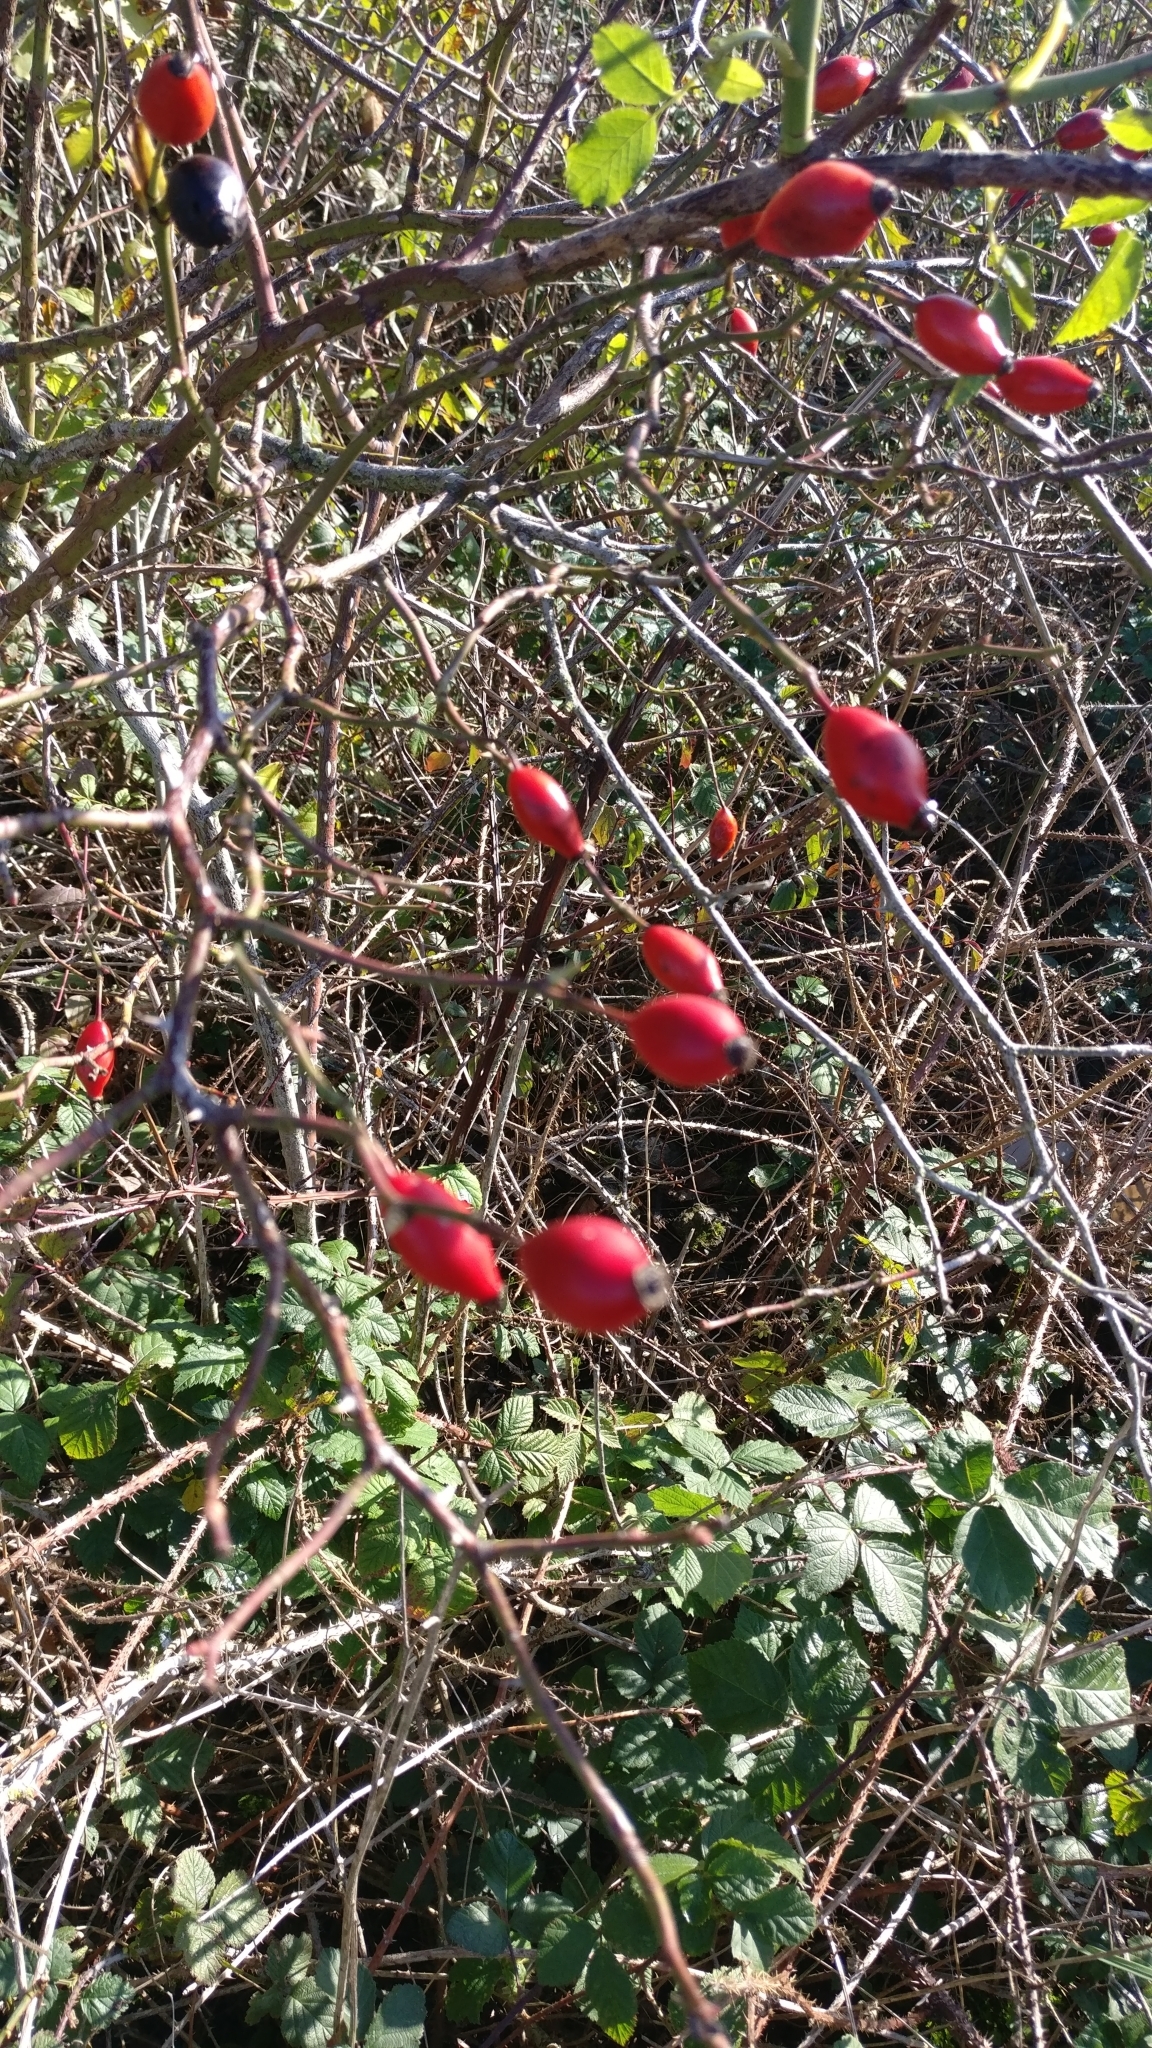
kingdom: Plantae
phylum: Tracheophyta
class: Magnoliopsida
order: Rosales
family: Rosaceae
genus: Rosa
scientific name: Rosa canina
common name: Dog rose
